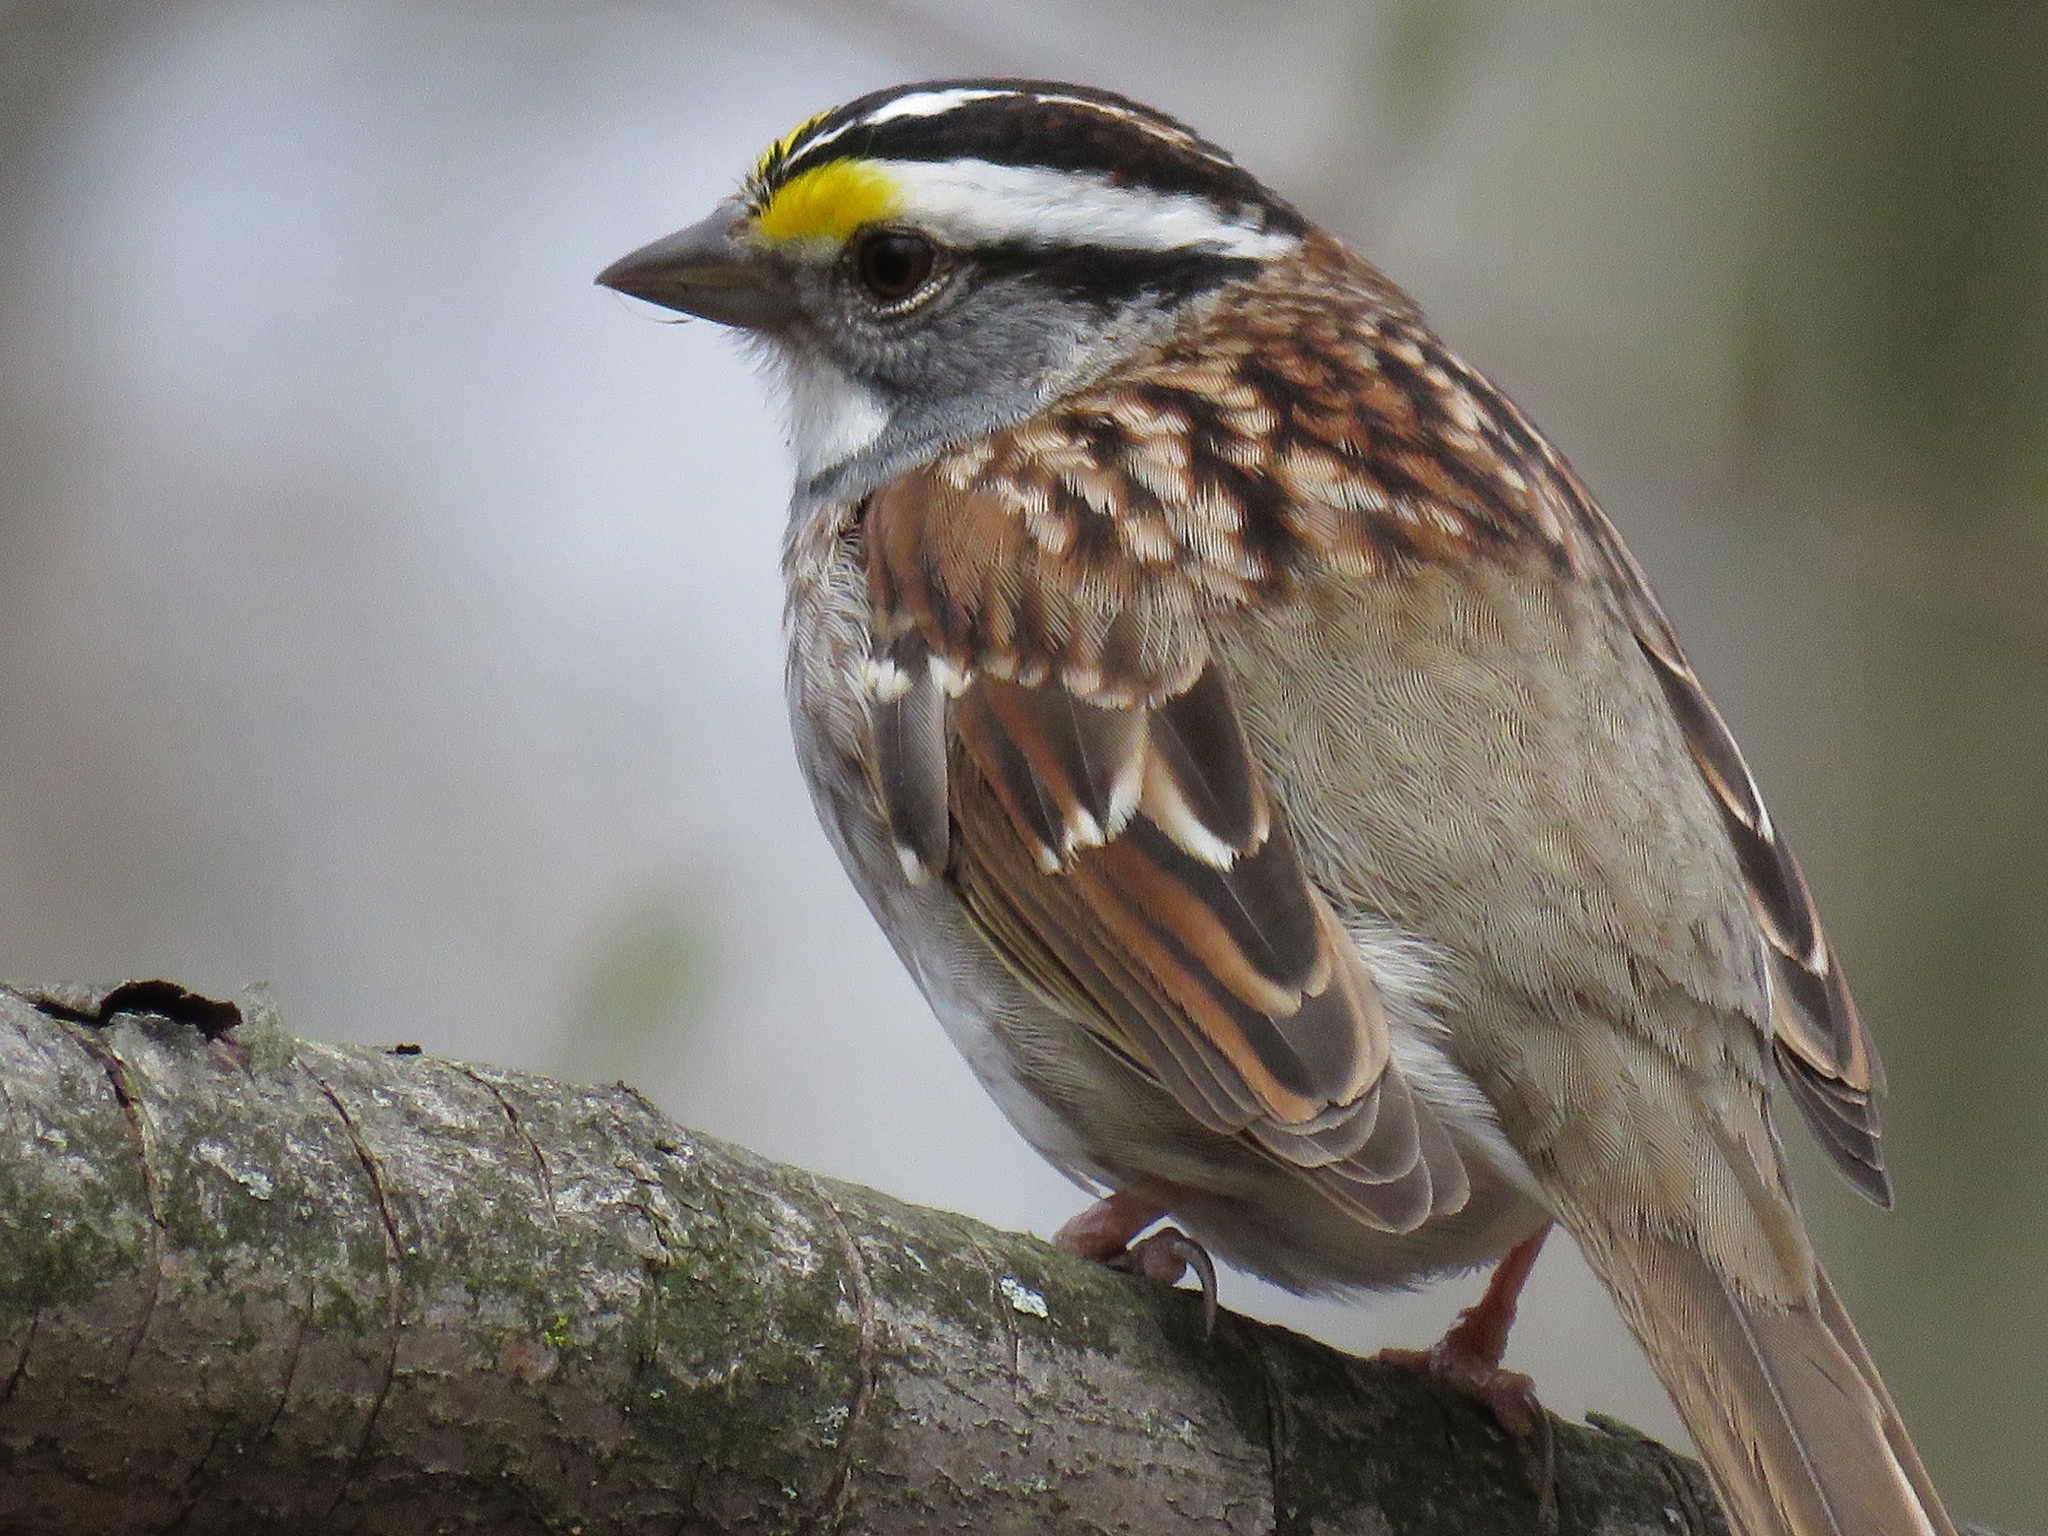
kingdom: Animalia
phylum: Chordata
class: Aves
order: Passeriformes
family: Passerellidae
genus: Zonotrichia
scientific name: Zonotrichia albicollis
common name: White-throated sparrow
